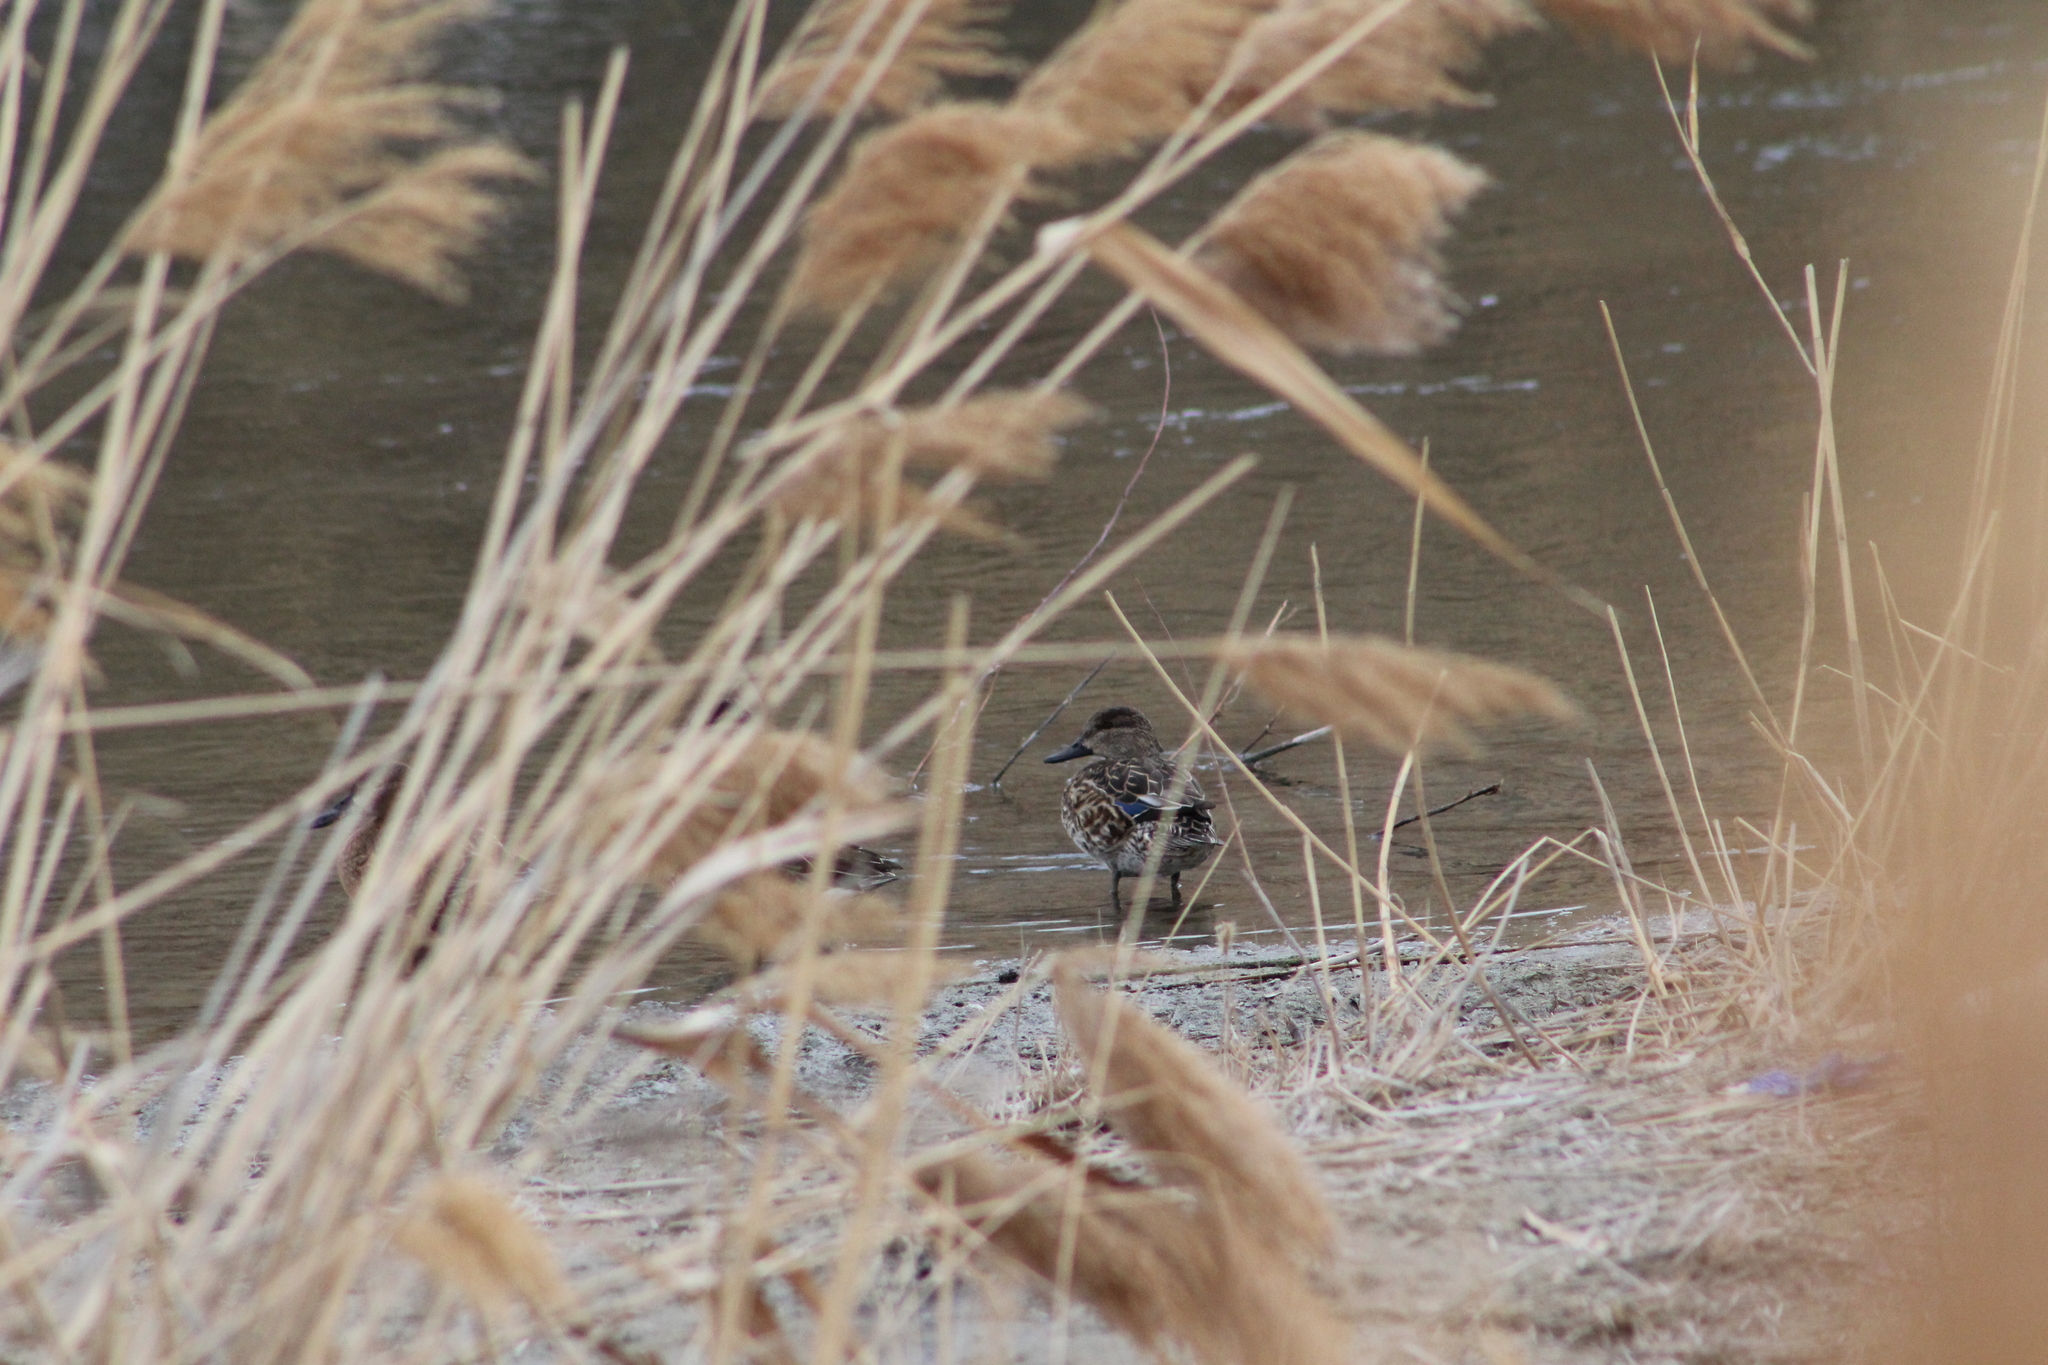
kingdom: Animalia
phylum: Chordata
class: Aves
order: Anseriformes
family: Anatidae
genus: Anas
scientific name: Anas crecca
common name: Eurasian teal
